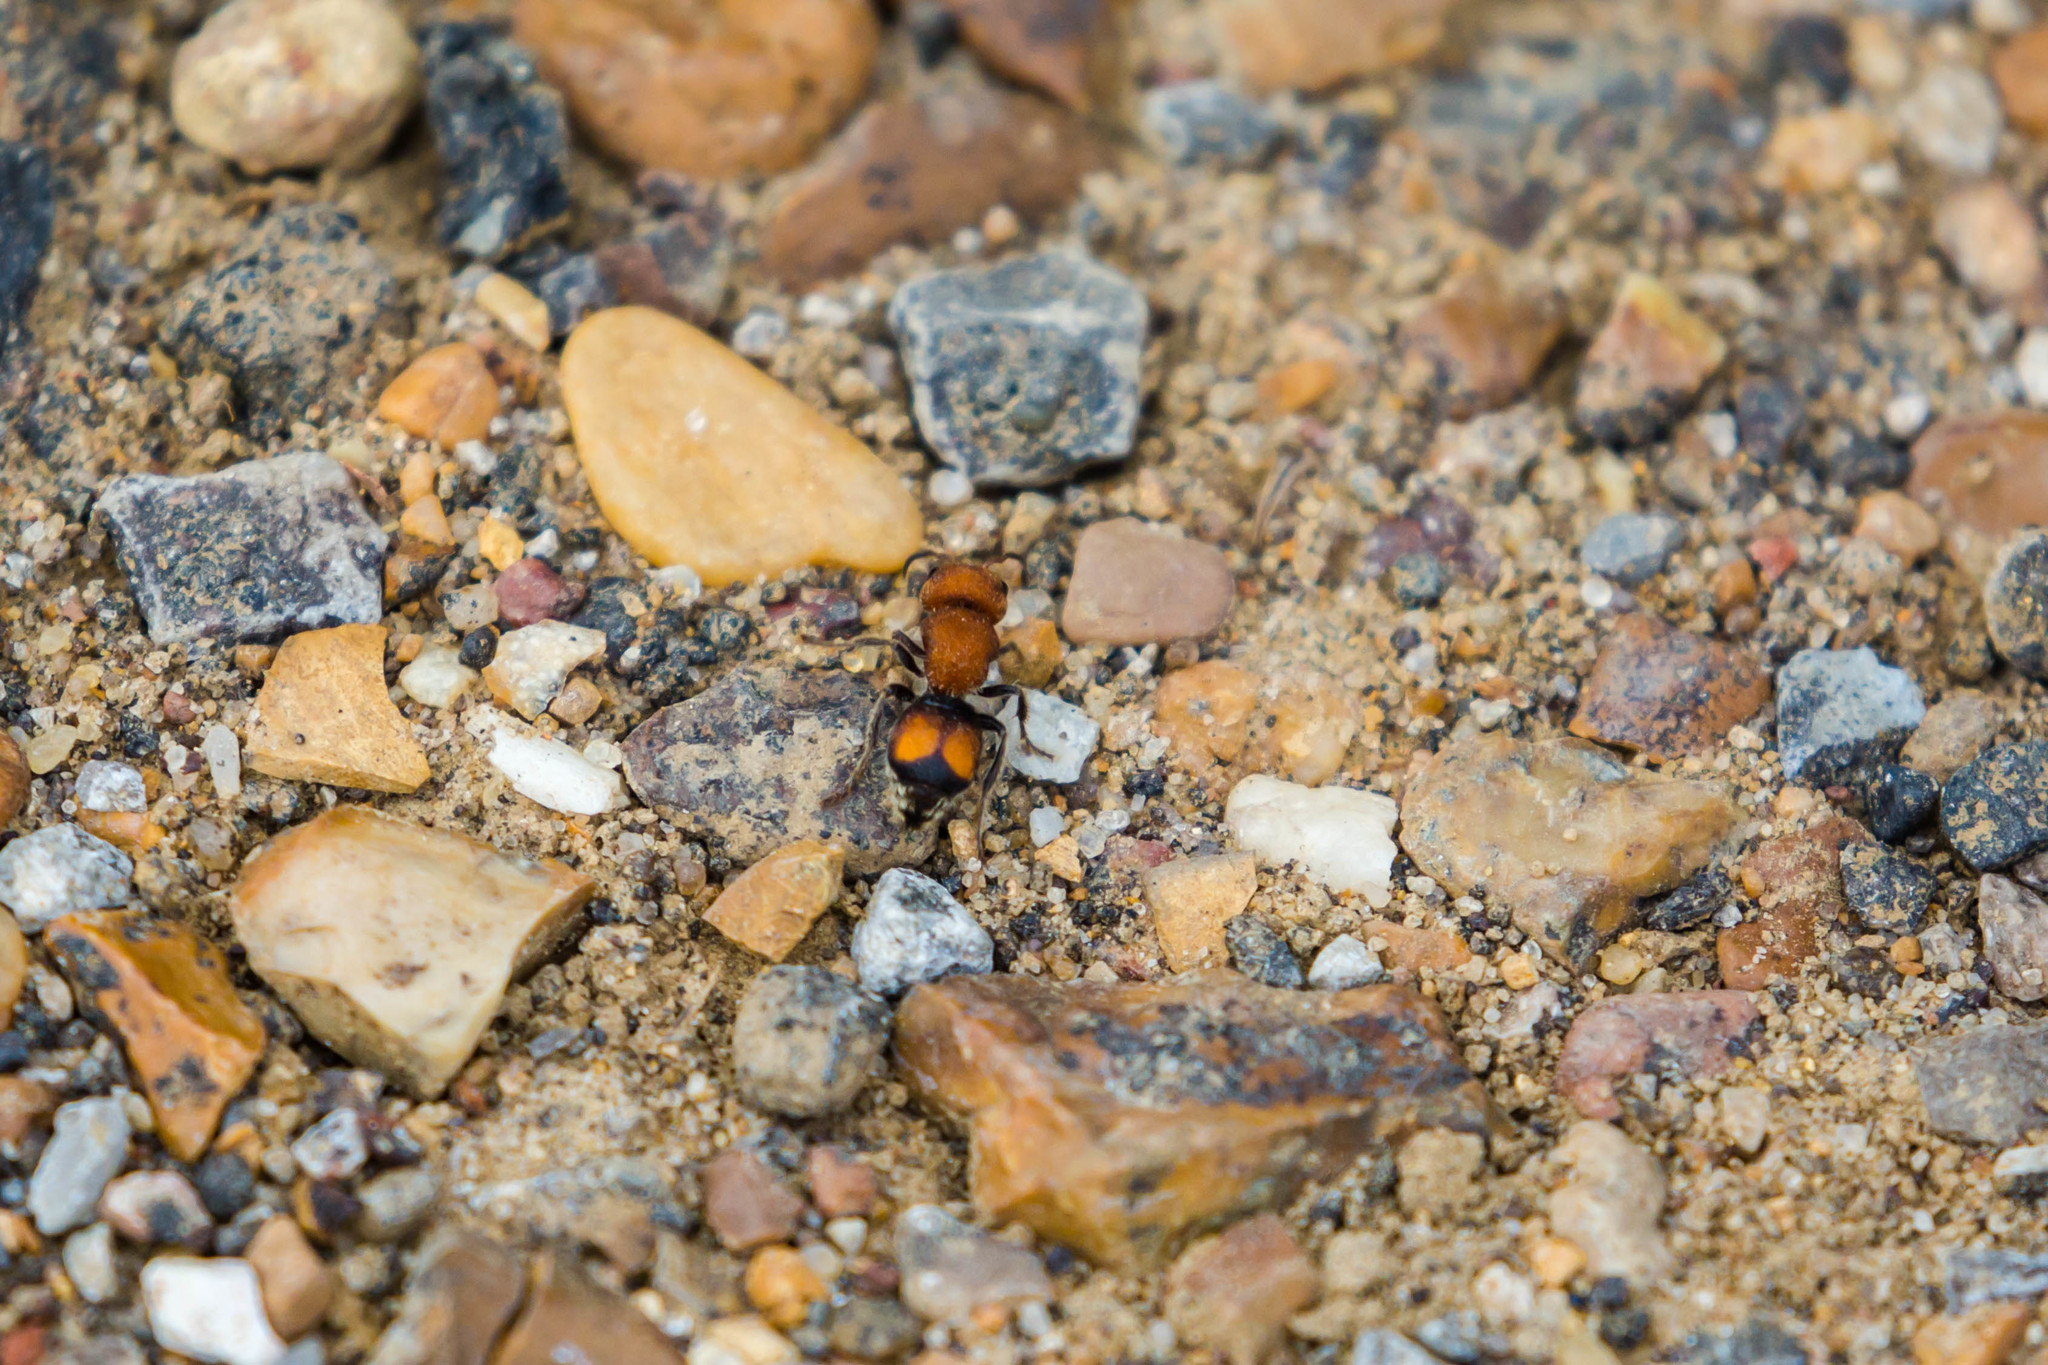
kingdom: Animalia
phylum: Arthropoda
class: Insecta
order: Hymenoptera
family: Mutillidae
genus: Pseudomethoca
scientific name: Pseudomethoca
